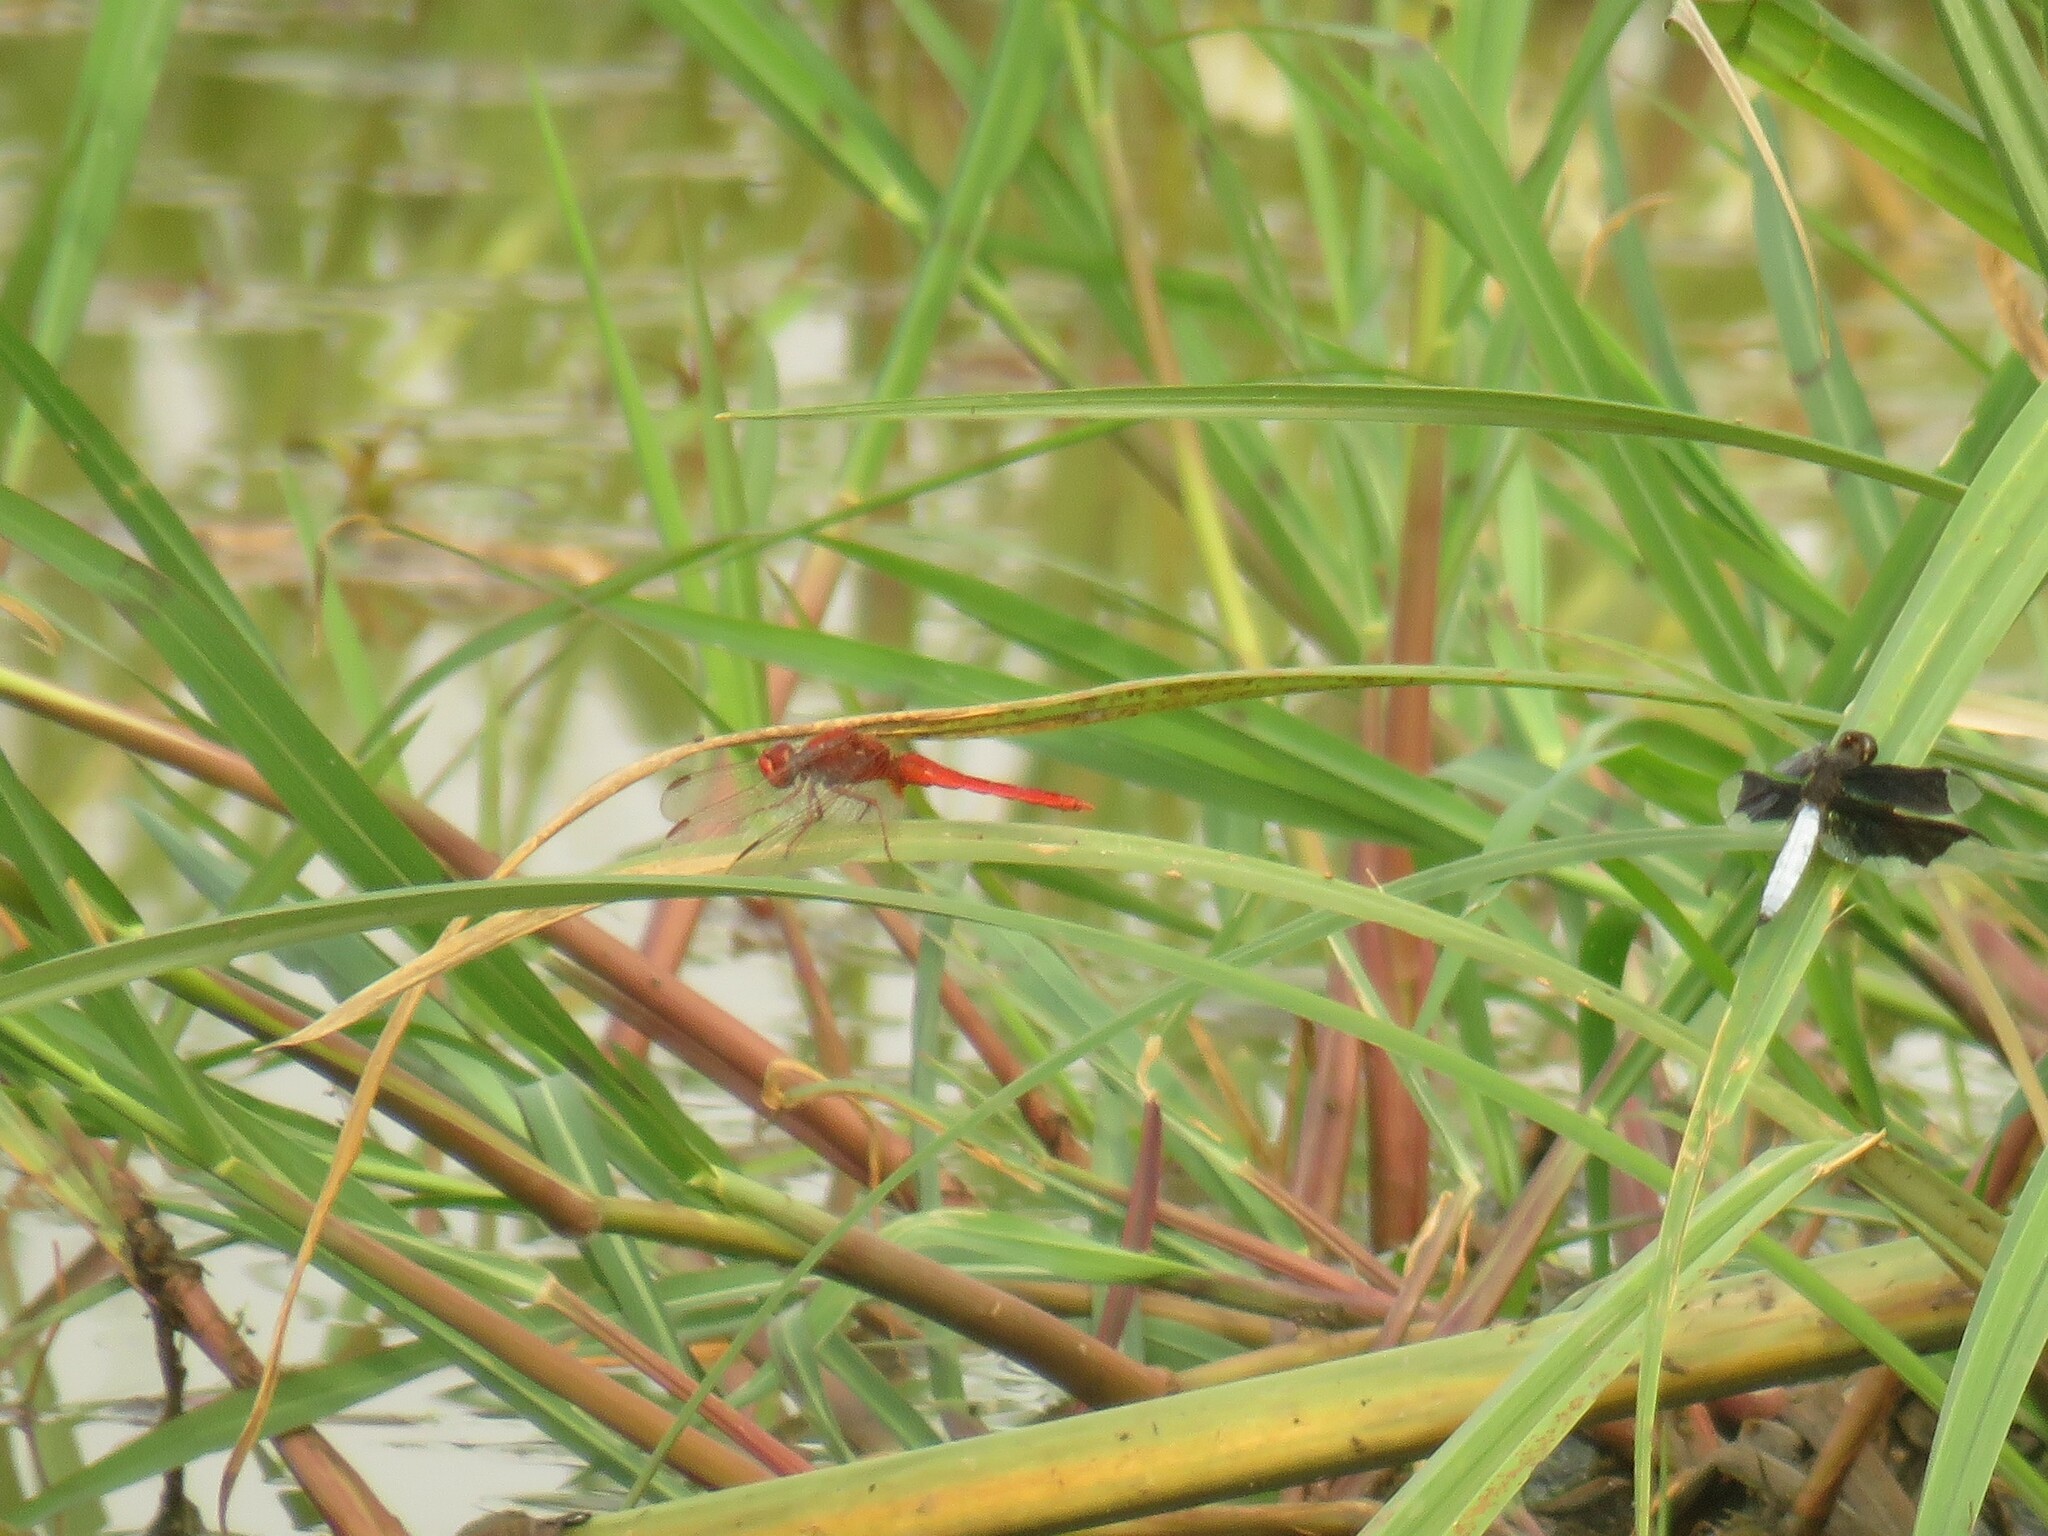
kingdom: Animalia
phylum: Arthropoda
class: Insecta
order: Odonata
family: Libellulidae
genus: Crocothemis
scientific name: Crocothemis erythraea
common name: Scarlet dragonfly
